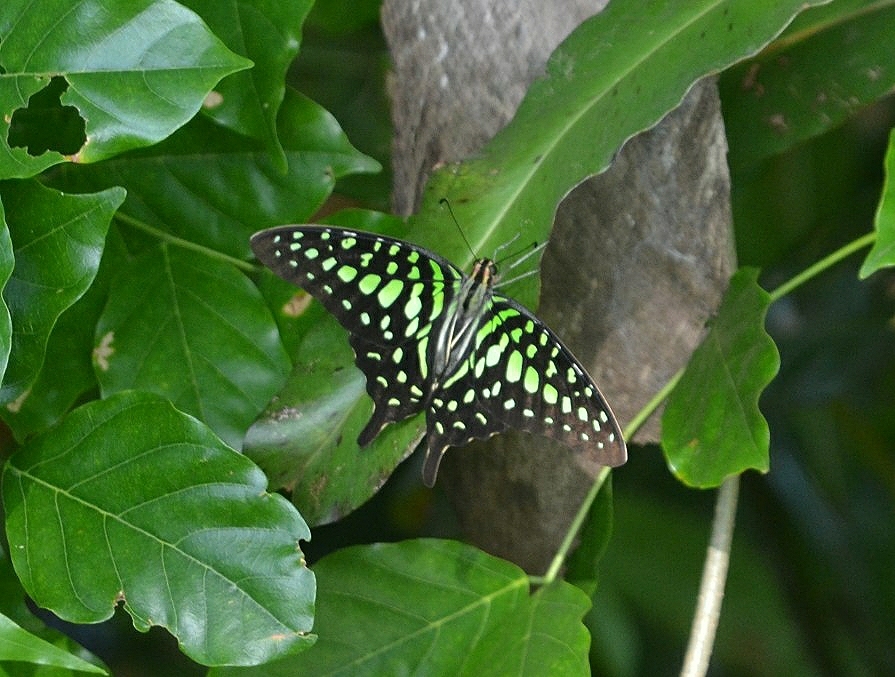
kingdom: Animalia
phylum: Arthropoda
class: Insecta
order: Lepidoptera
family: Papilionidae
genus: Graphium
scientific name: Graphium agamemnon
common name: Tailed jay
